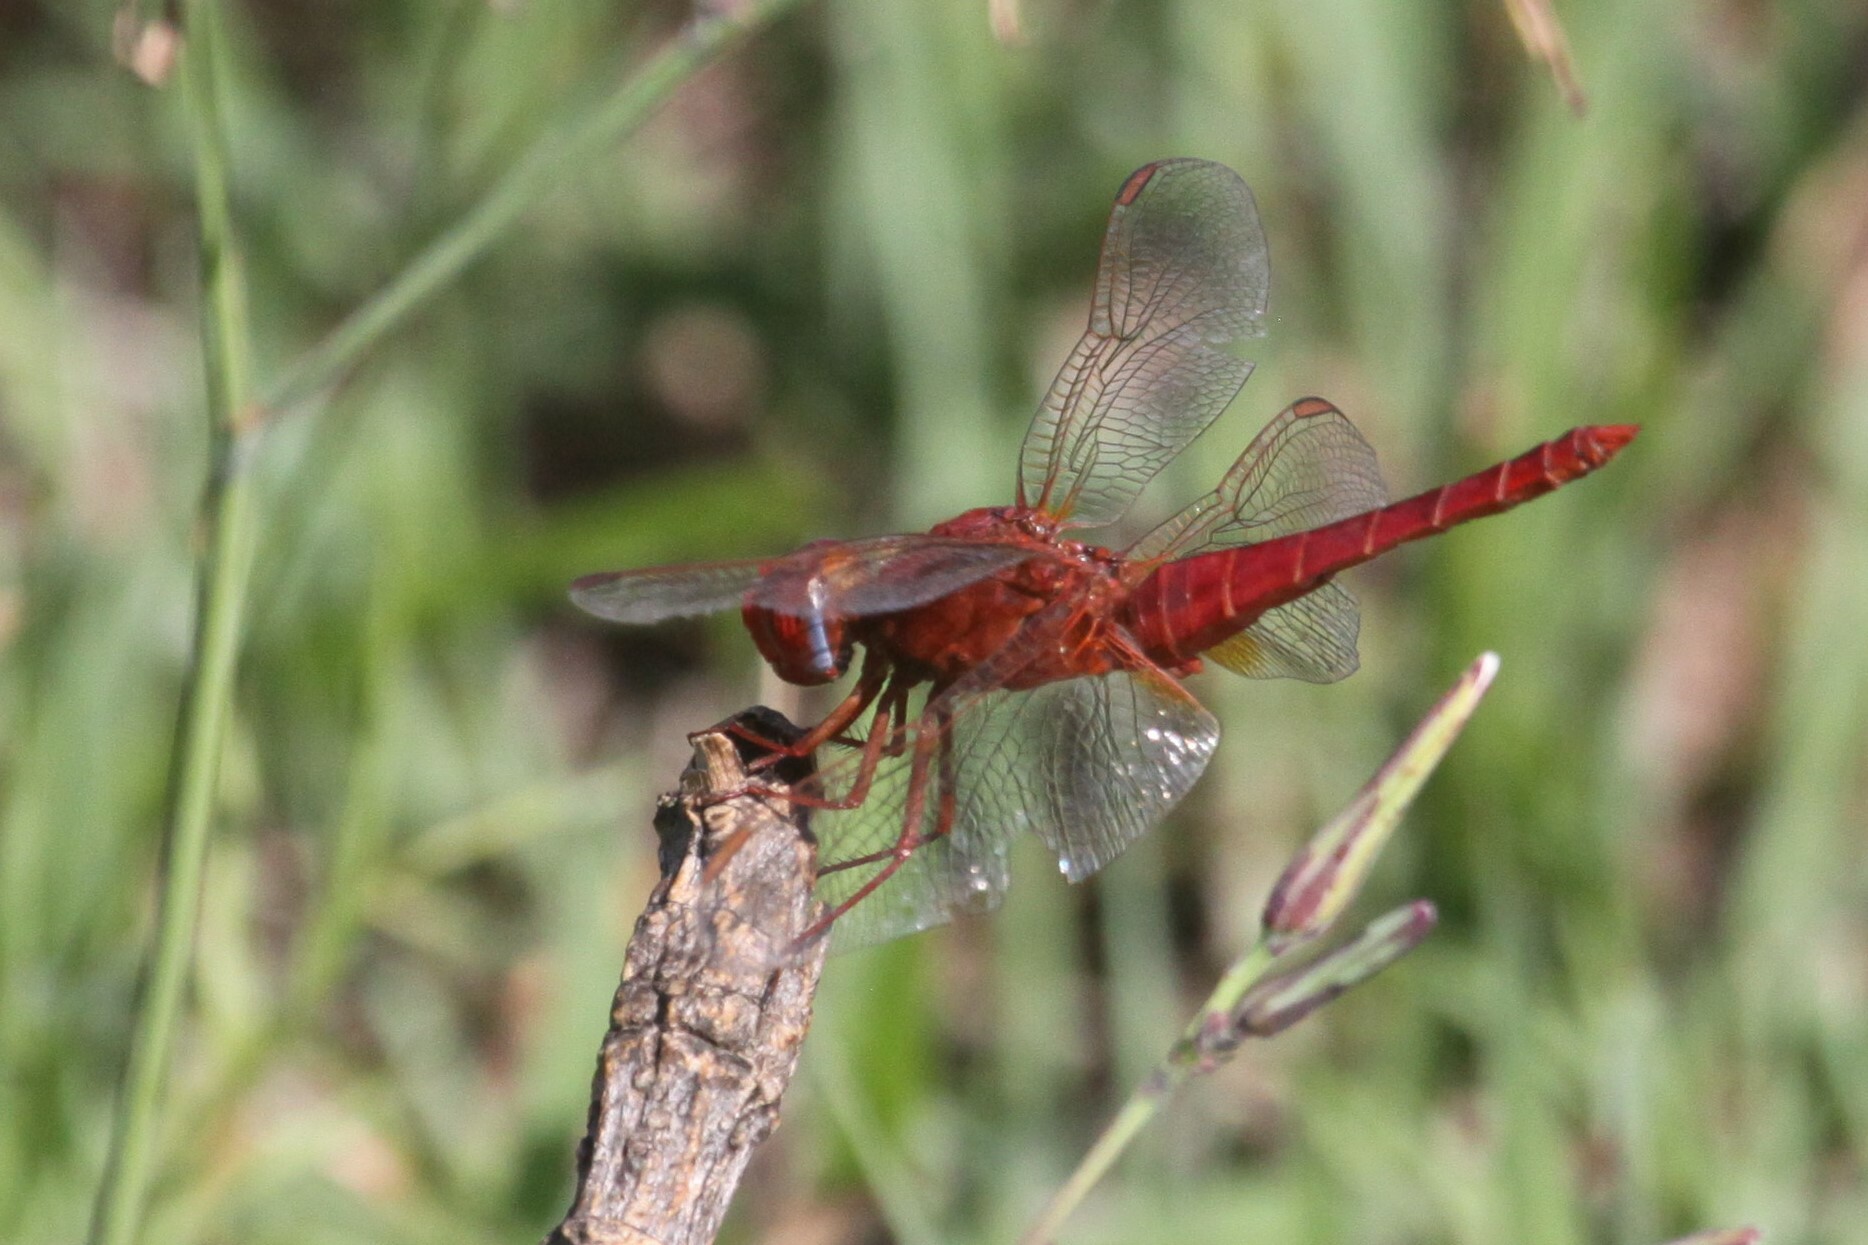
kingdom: Animalia
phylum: Arthropoda
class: Insecta
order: Odonata
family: Libellulidae
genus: Crocothemis
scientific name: Crocothemis erythraea
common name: Scarlet dragonfly
